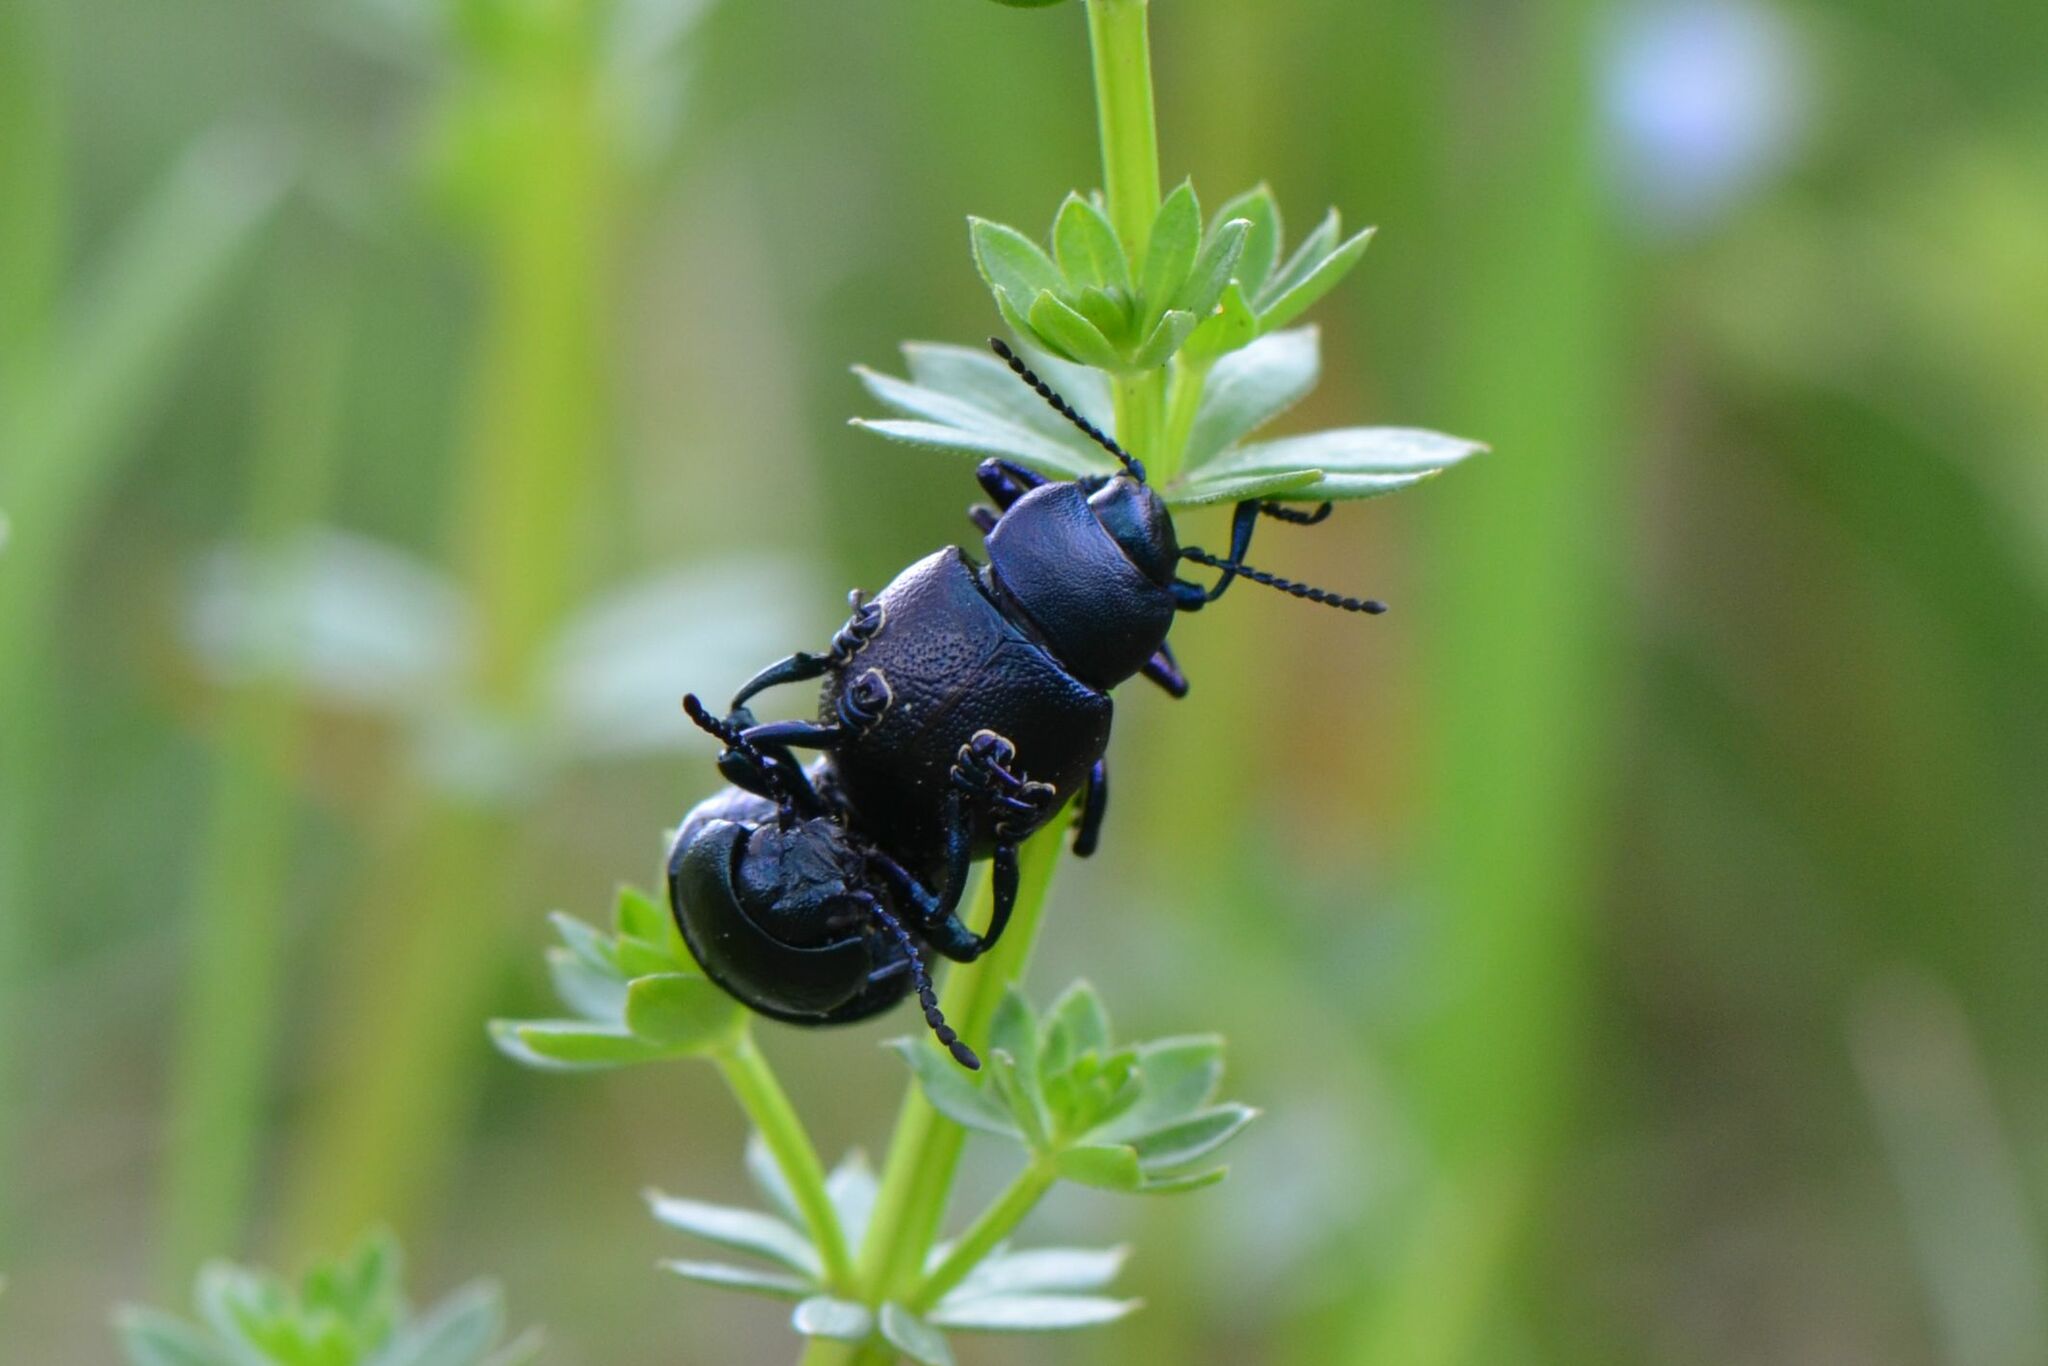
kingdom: Animalia
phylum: Arthropoda
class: Insecta
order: Coleoptera
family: Chrysomelidae
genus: Timarcha
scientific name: Timarcha goettingensis
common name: Small bloody-nosed beetle
